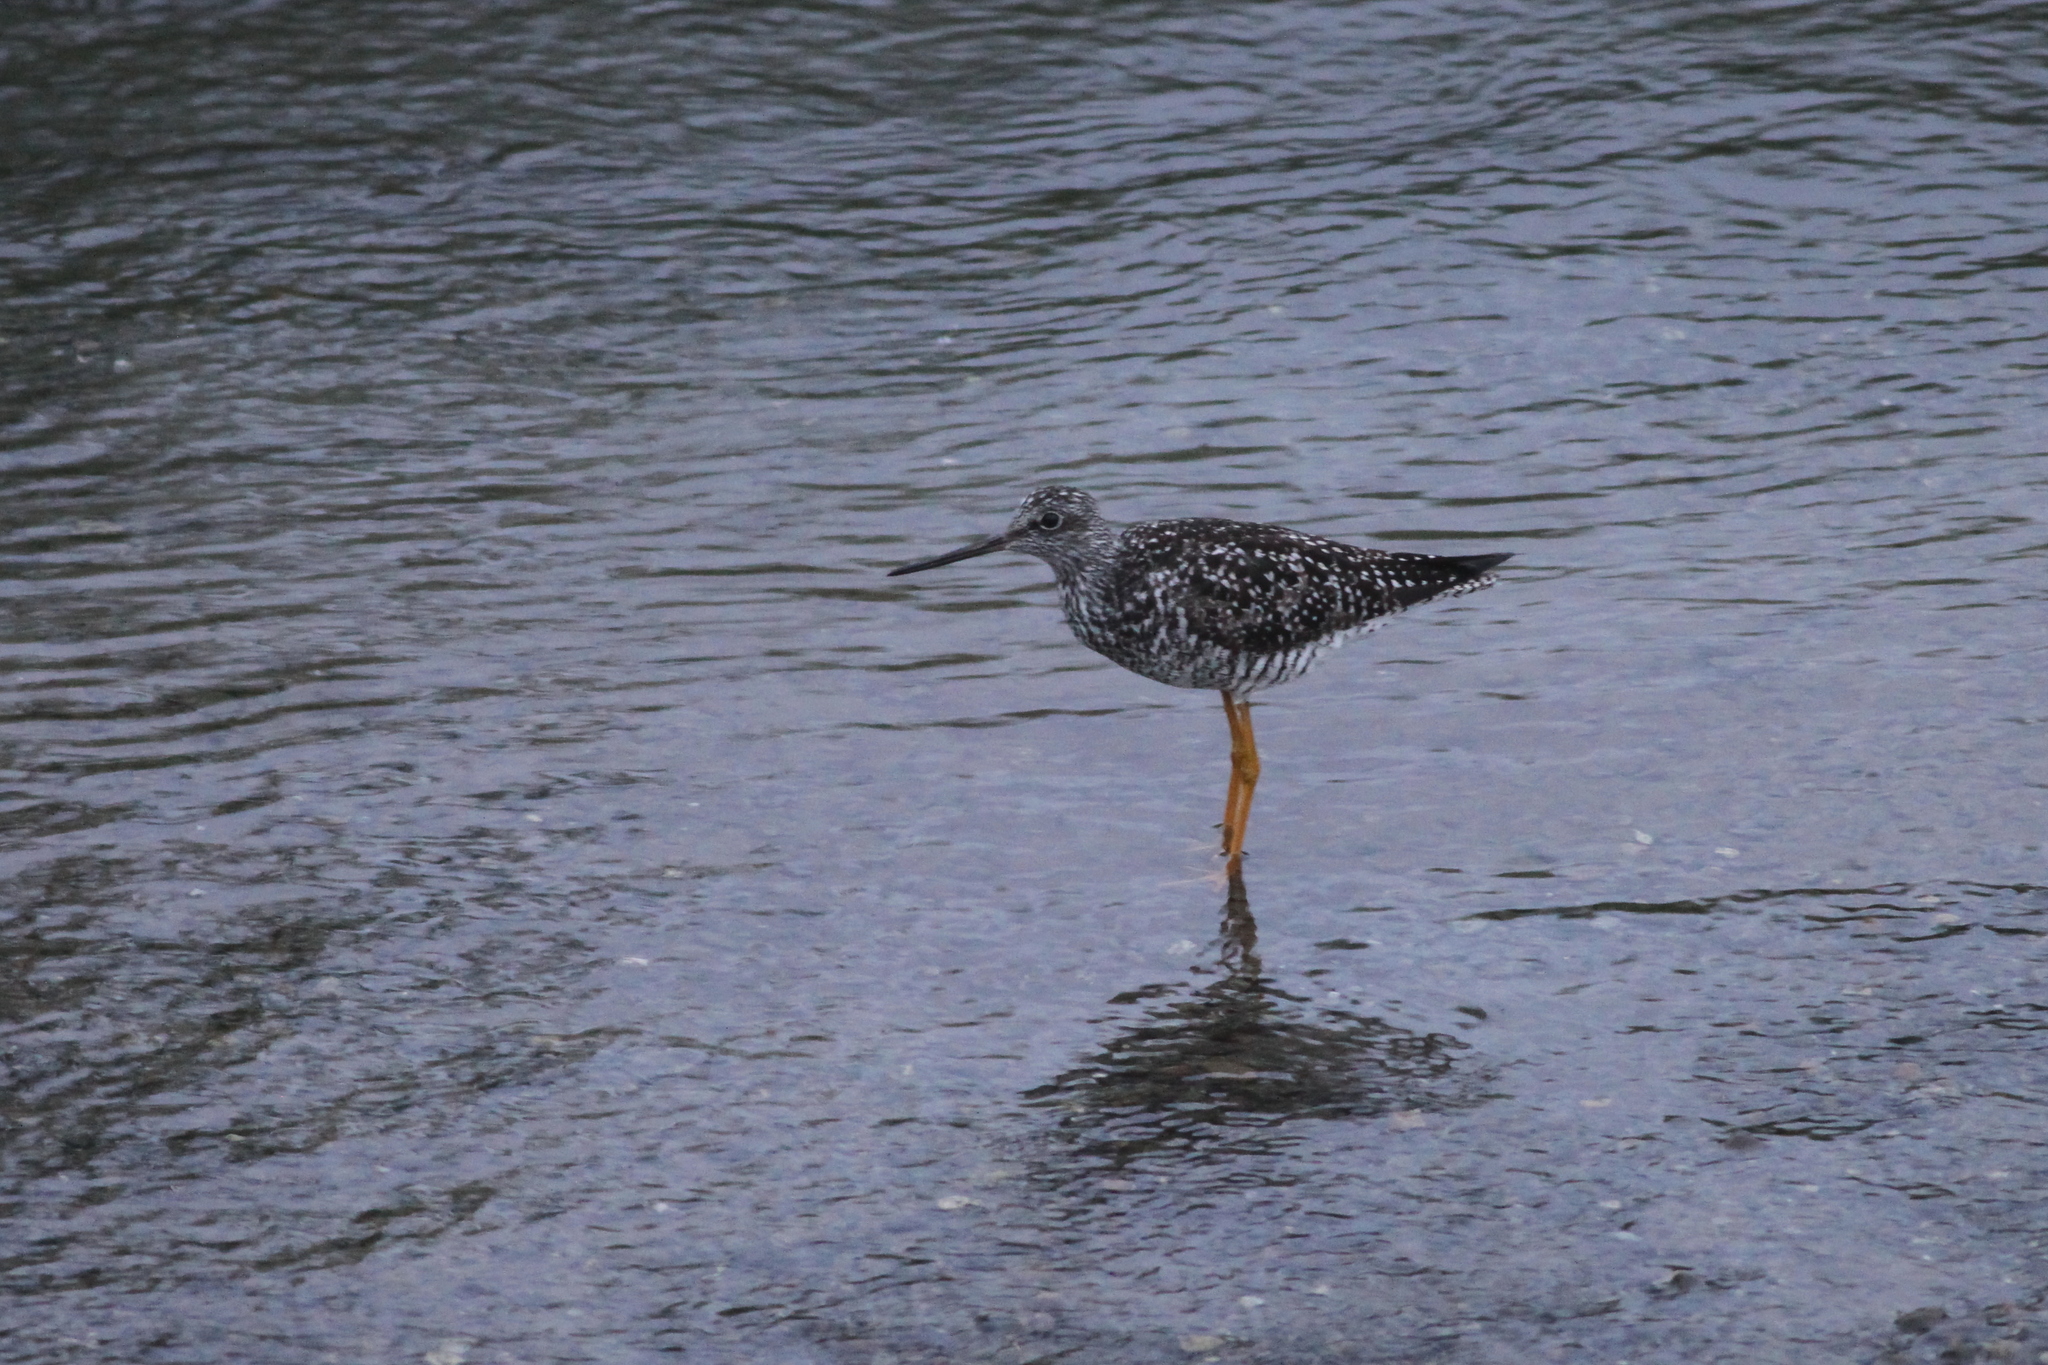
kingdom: Animalia
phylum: Chordata
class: Aves
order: Charadriiformes
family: Scolopacidae
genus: Tringa
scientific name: Tringa melanoleuca
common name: Greater yellowlegs
